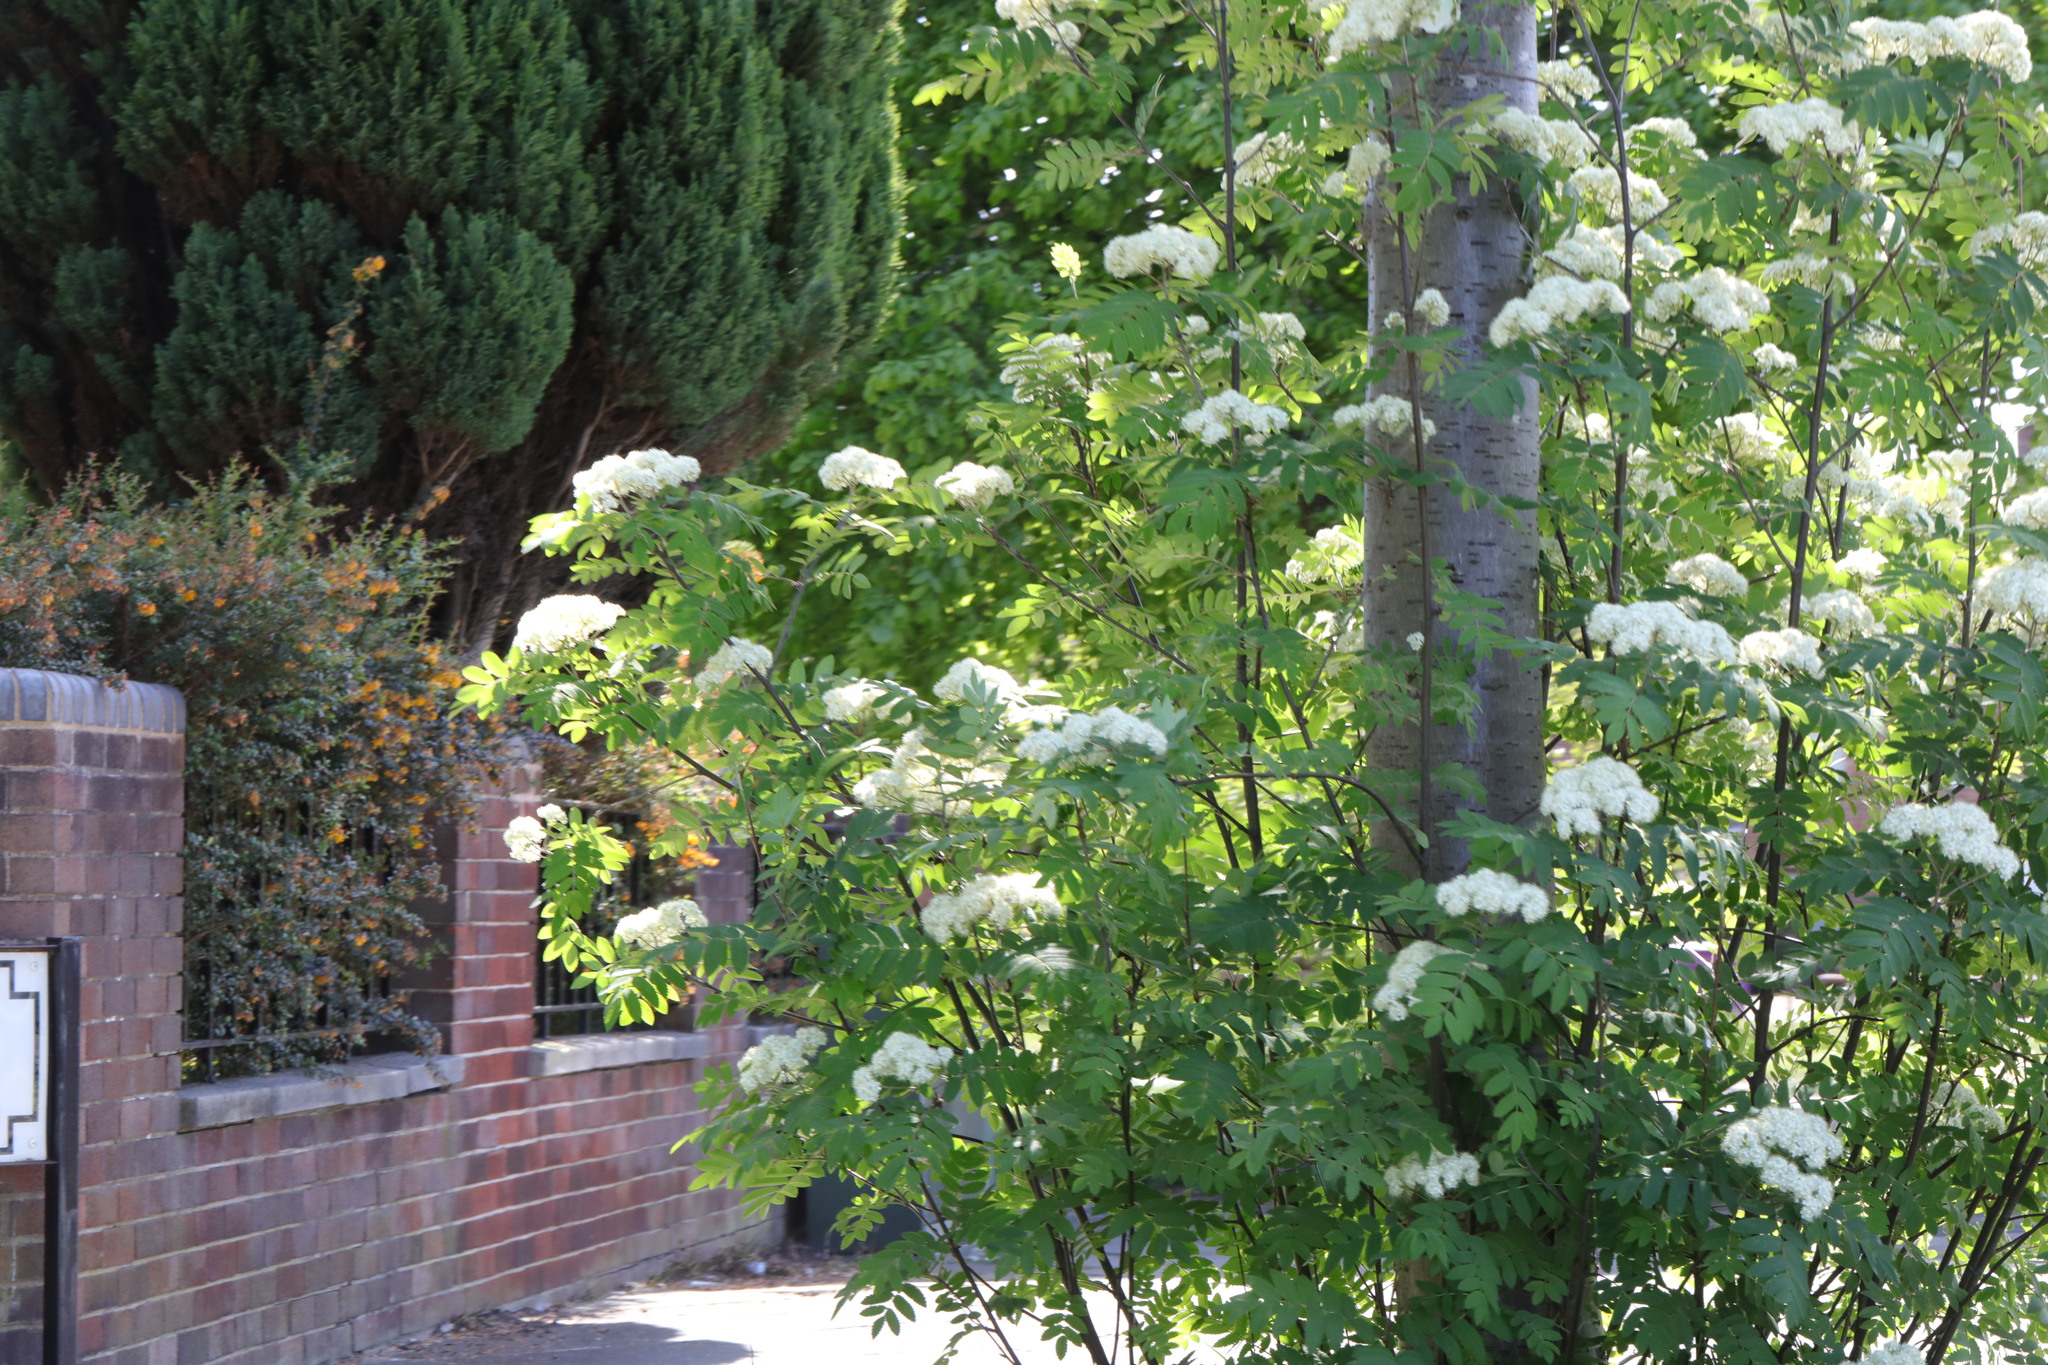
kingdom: Plantae
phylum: Tracheophyta
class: Magnoliopsida
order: Rosales
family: Rosaceae
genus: Sorbus
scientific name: Sorbus aucuparia
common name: Rowan
